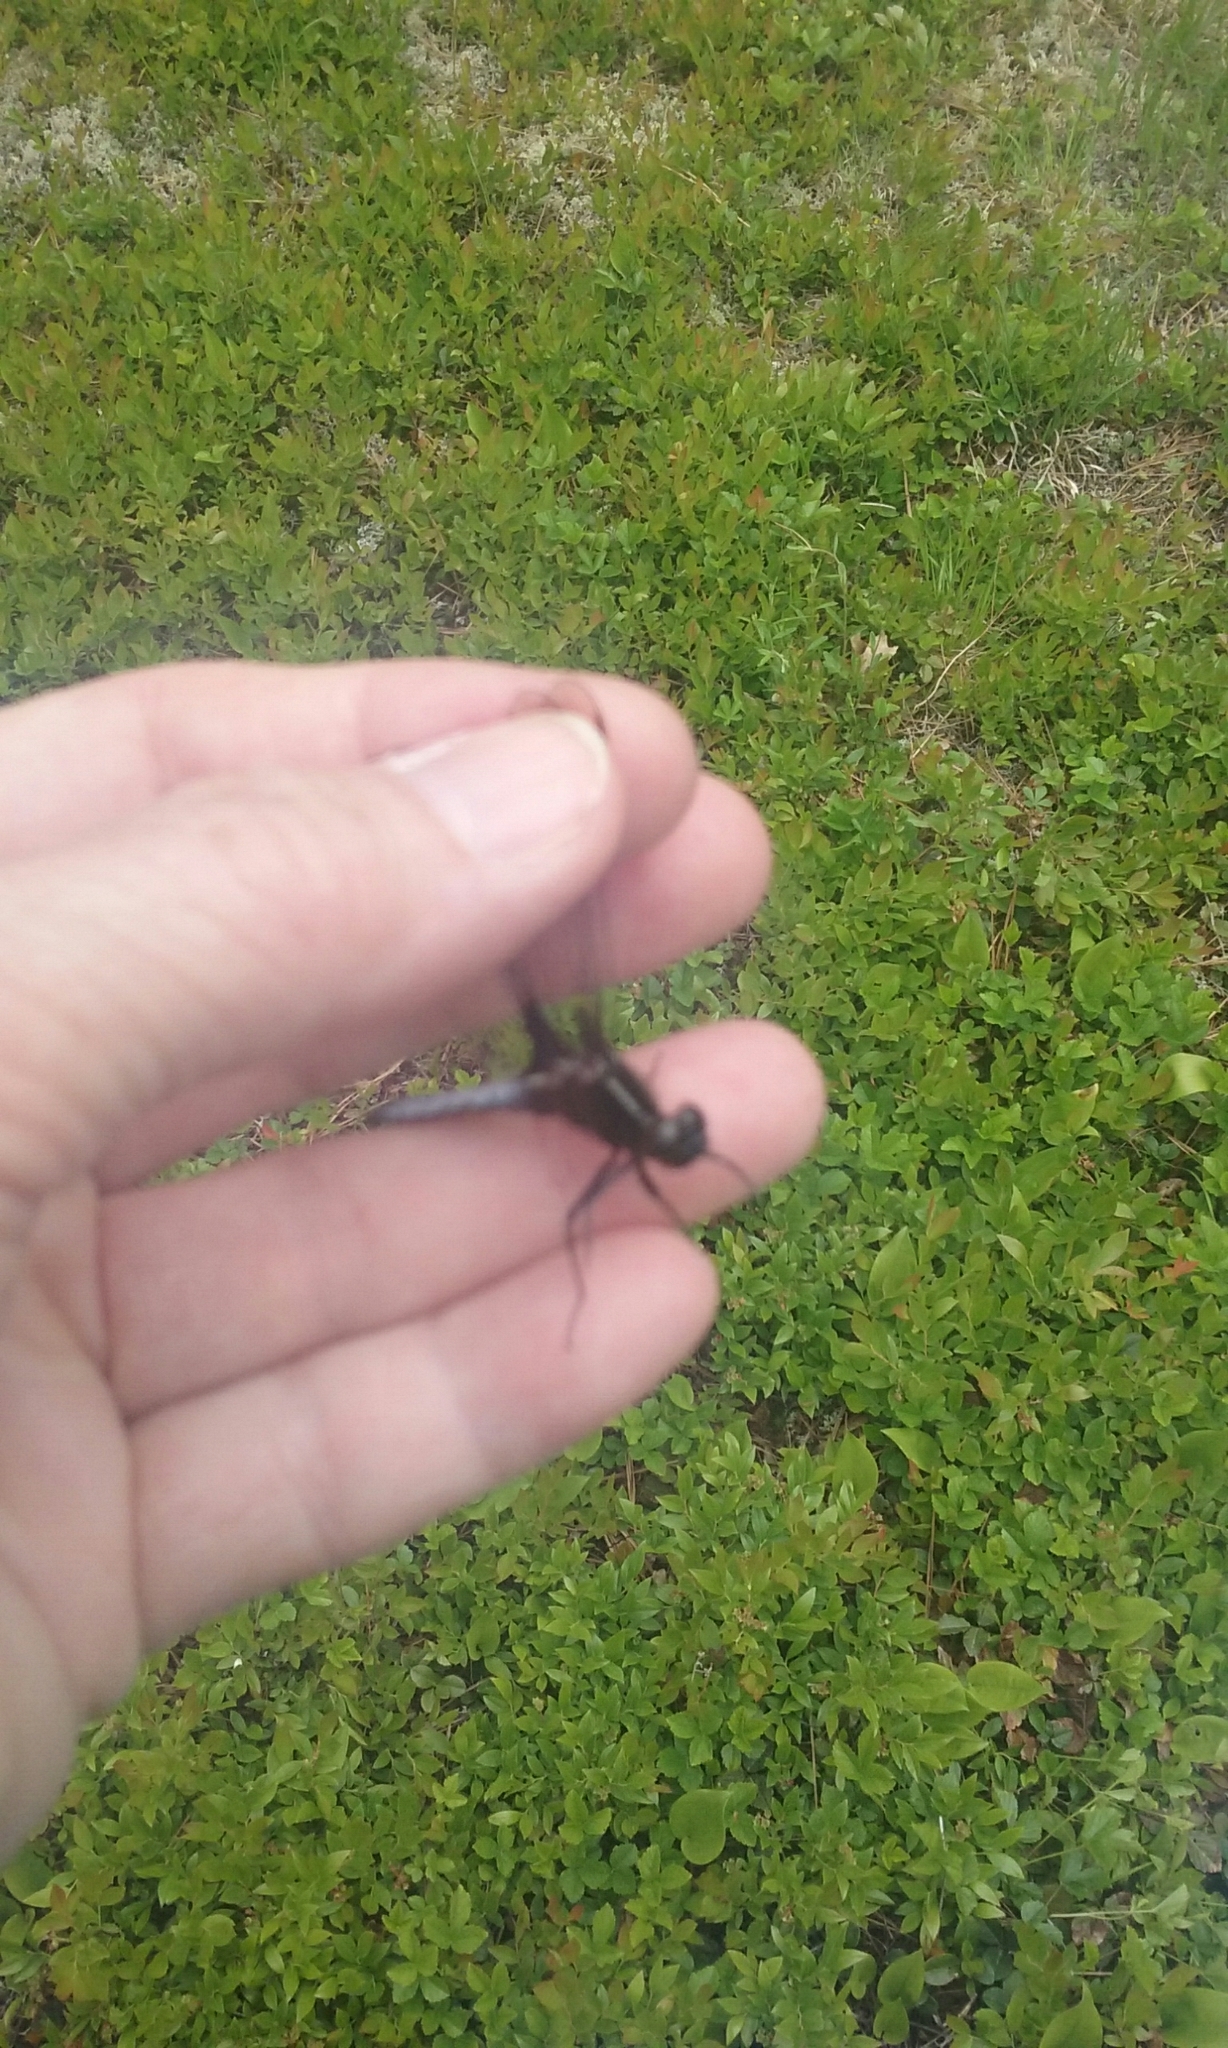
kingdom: Animalia
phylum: Arthropoda
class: Insecta
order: Odonata
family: Libellulidae
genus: Ladona
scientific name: Ladona exusta
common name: Libellule embrasée
